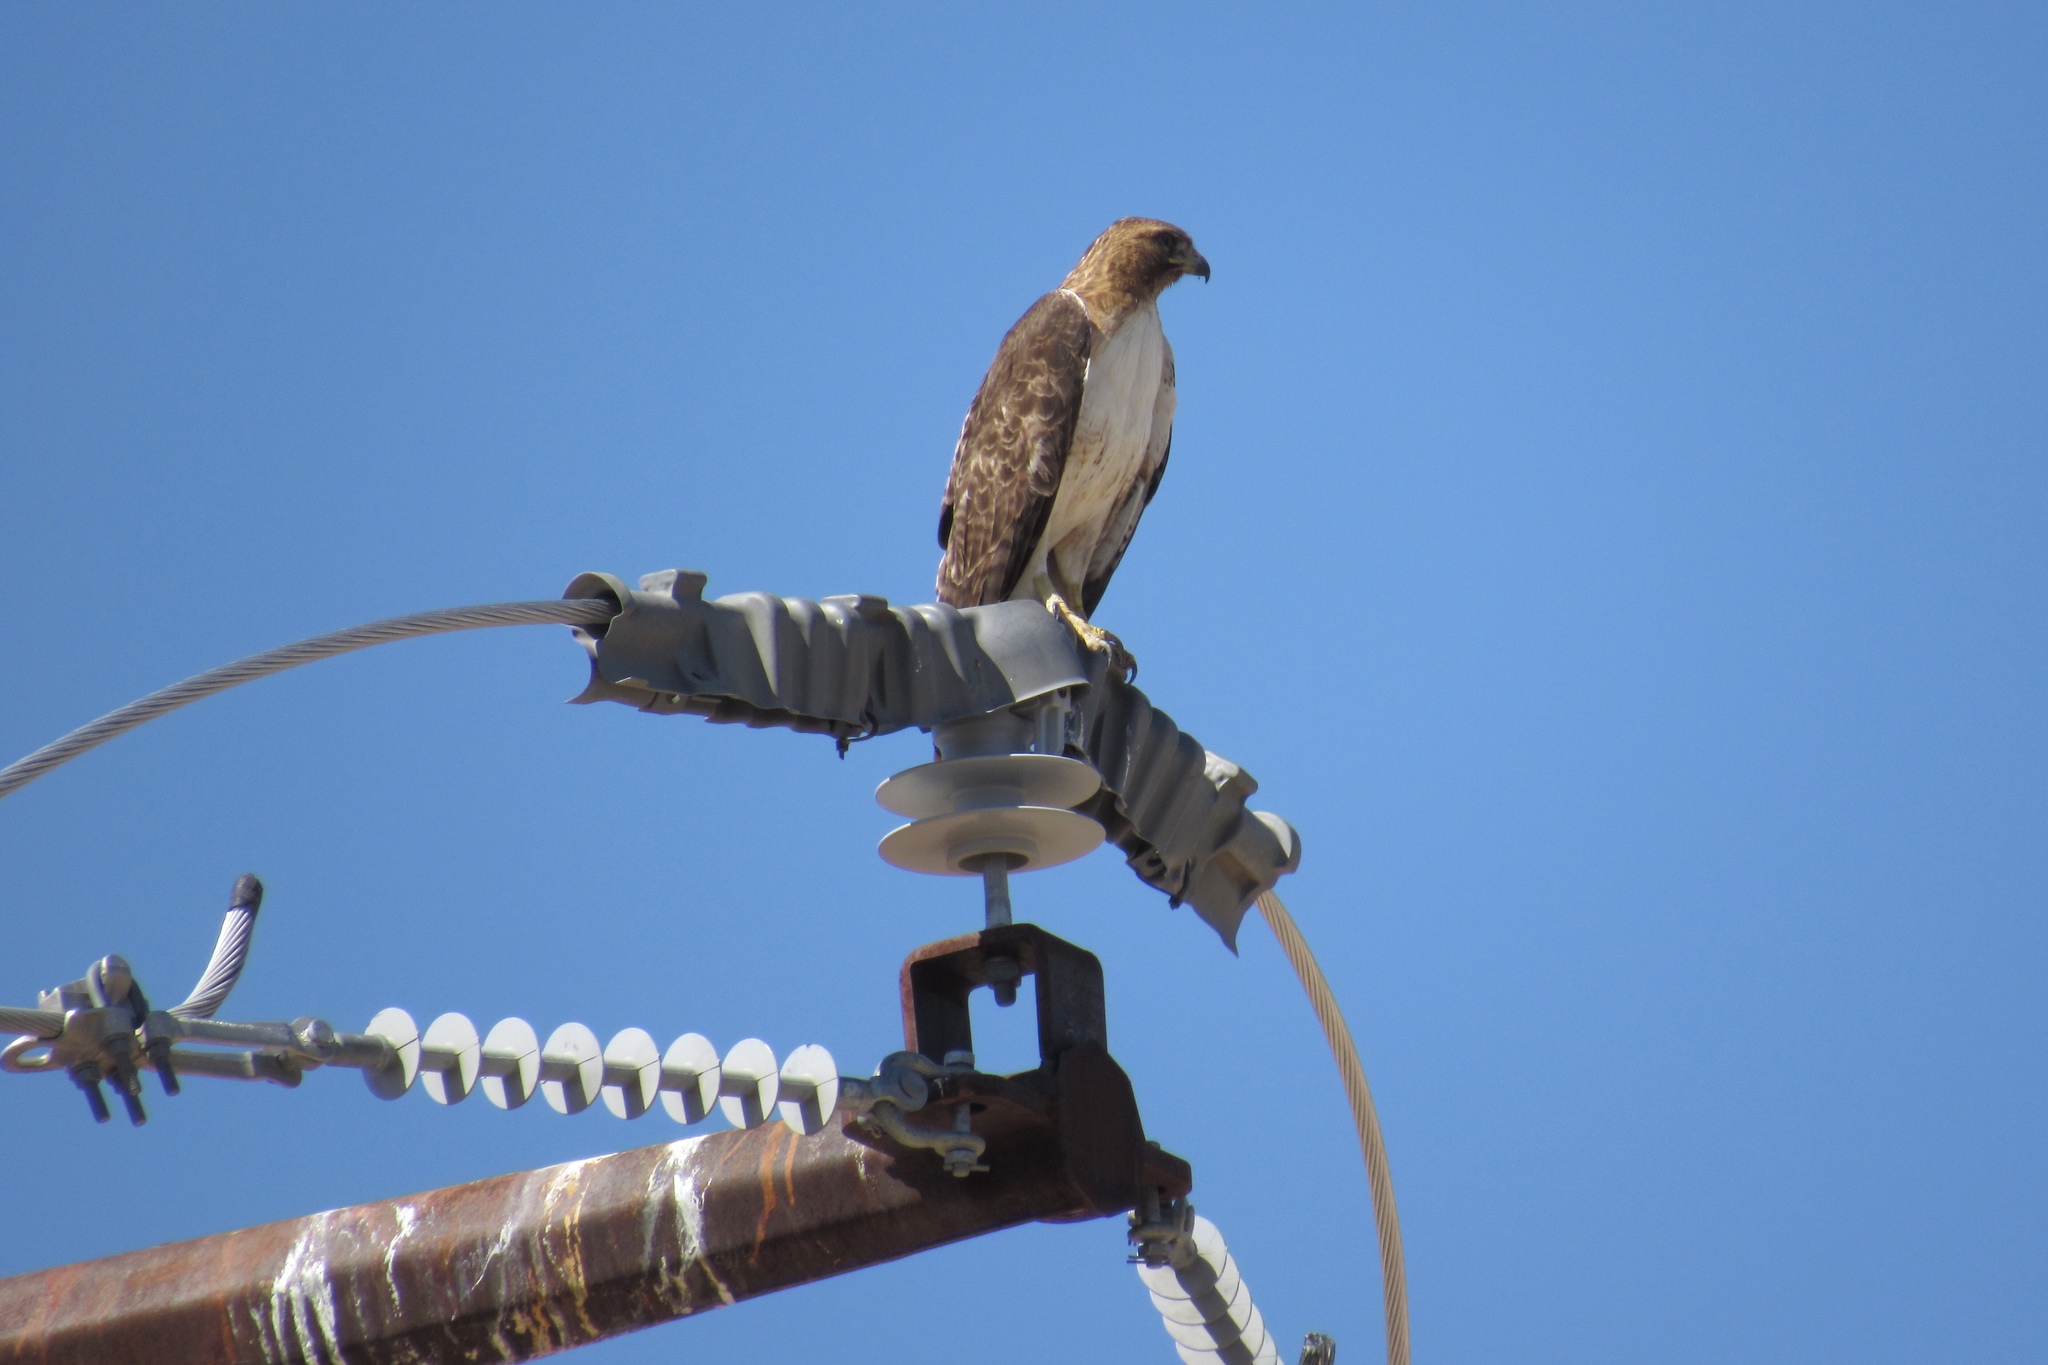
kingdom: Animalia
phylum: Chordata
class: Aves
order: Accipitriformes
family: Accipitridae
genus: Buteo
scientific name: Buteo jamaicensis
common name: Red-tailed hawk
